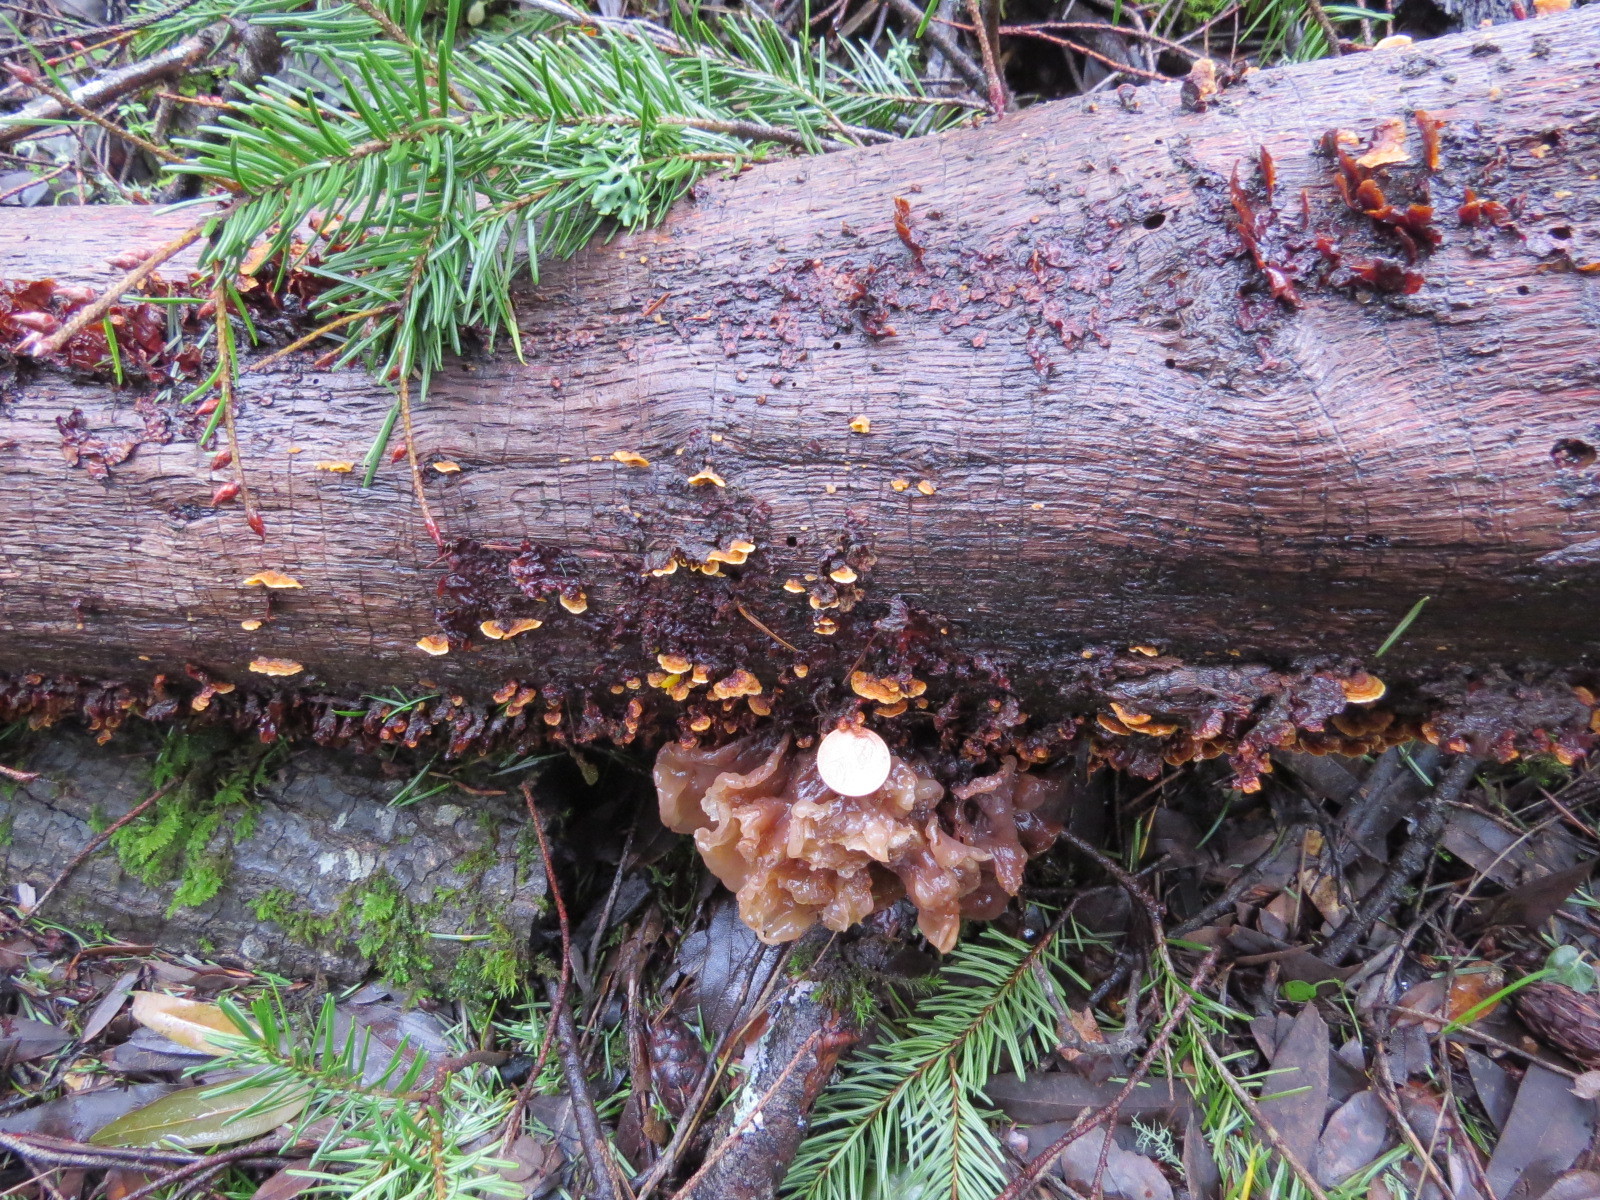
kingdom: Fungi
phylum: Basidiomycota
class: Tremellomycetes
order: Tremellales
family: Tremellaceae
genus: Phaeotremella
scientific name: Phaeotremella foliacea
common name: Leafy brain
